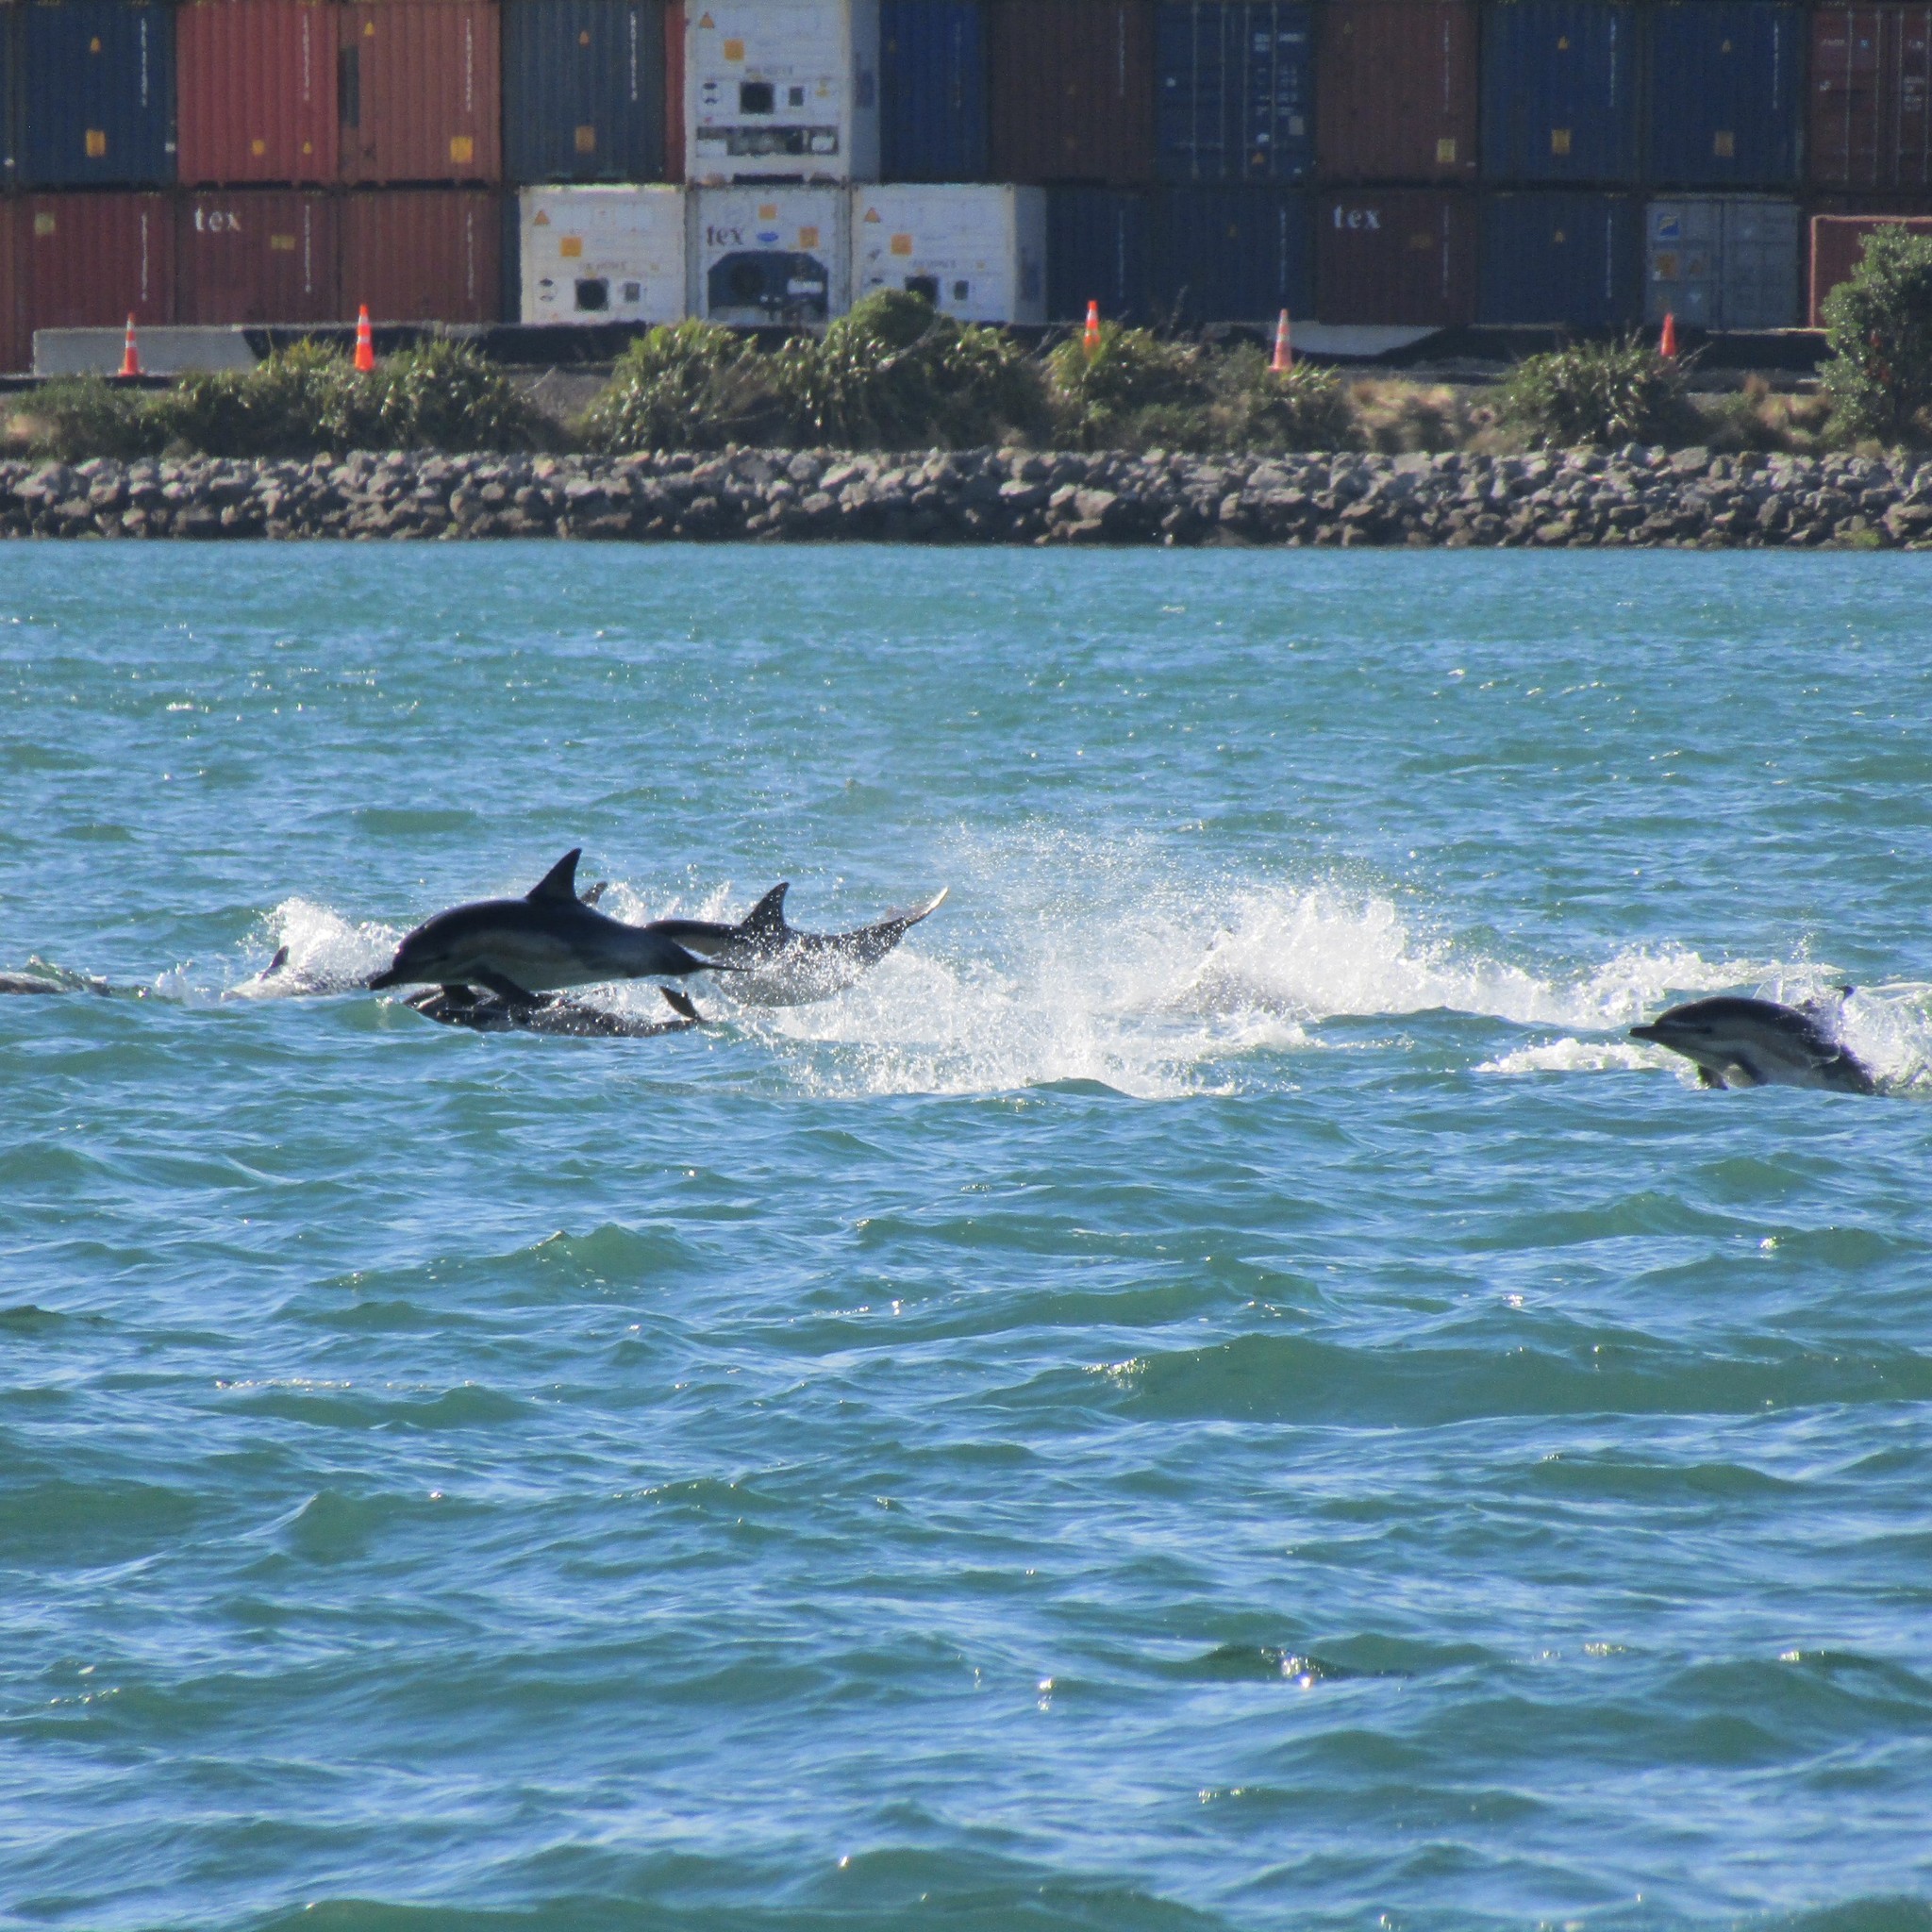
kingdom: Animalia
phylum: Chordata
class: Mammalia
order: Cetacea
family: Delphinidae
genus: Delphinus
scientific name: Delphinus delphis
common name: Common dolphin
